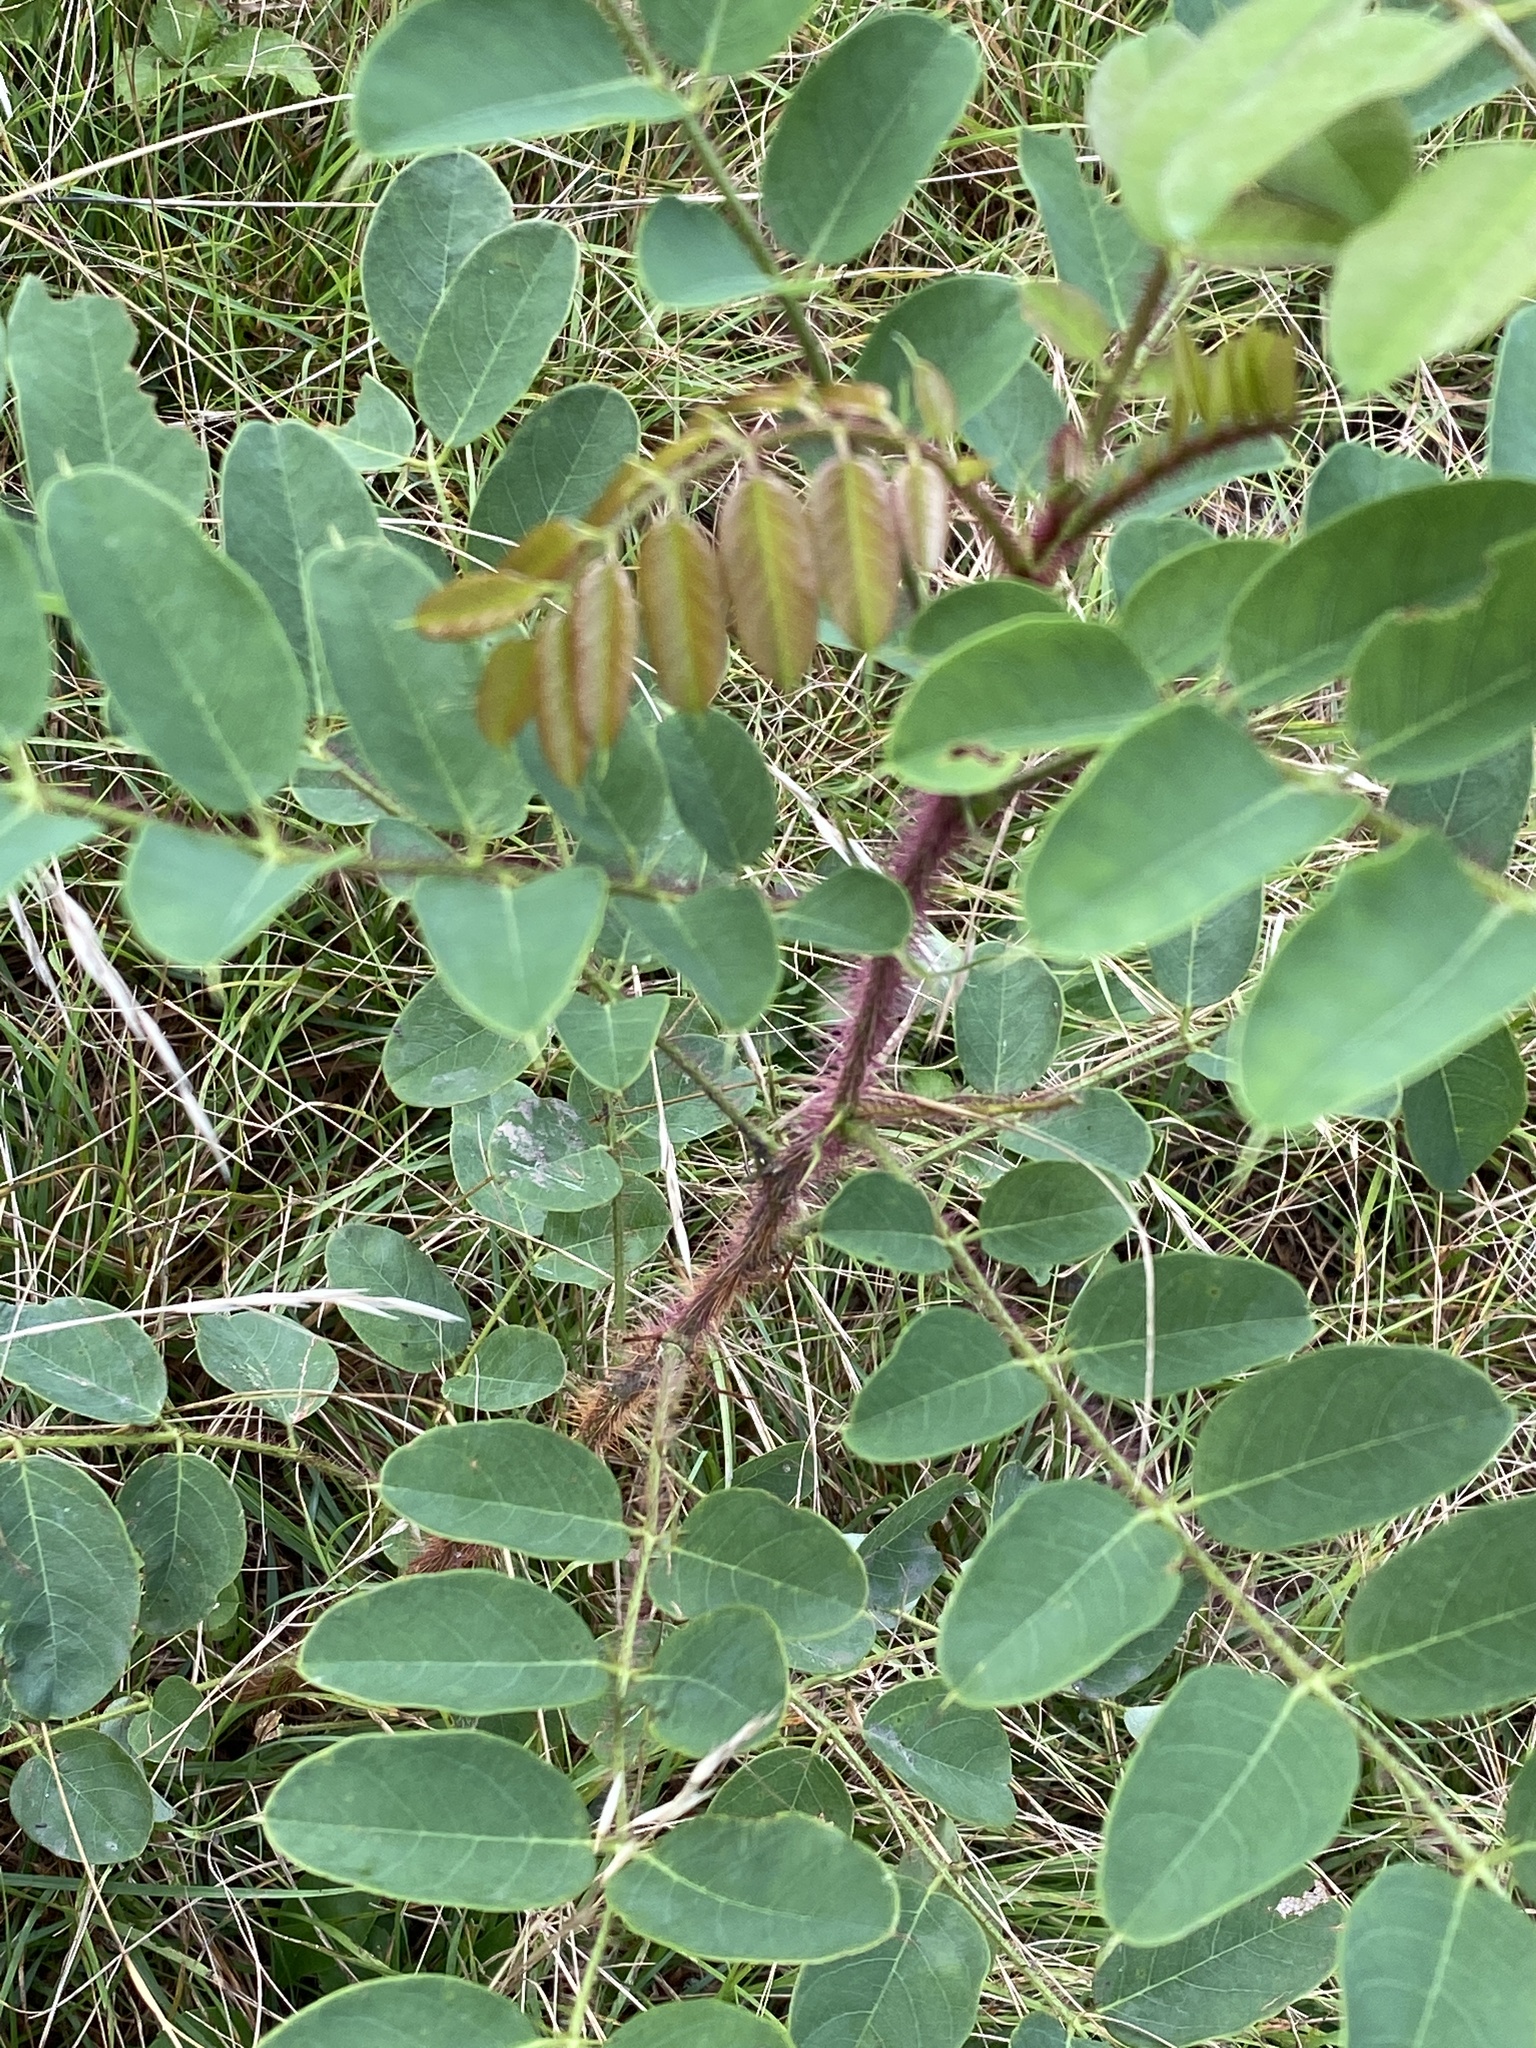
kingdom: Plantae
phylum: Tracheophyta
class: Magnoliopsida
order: Fabales
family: Fabaceae
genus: Robinia
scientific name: Robinia hispida
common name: Bristly locust
